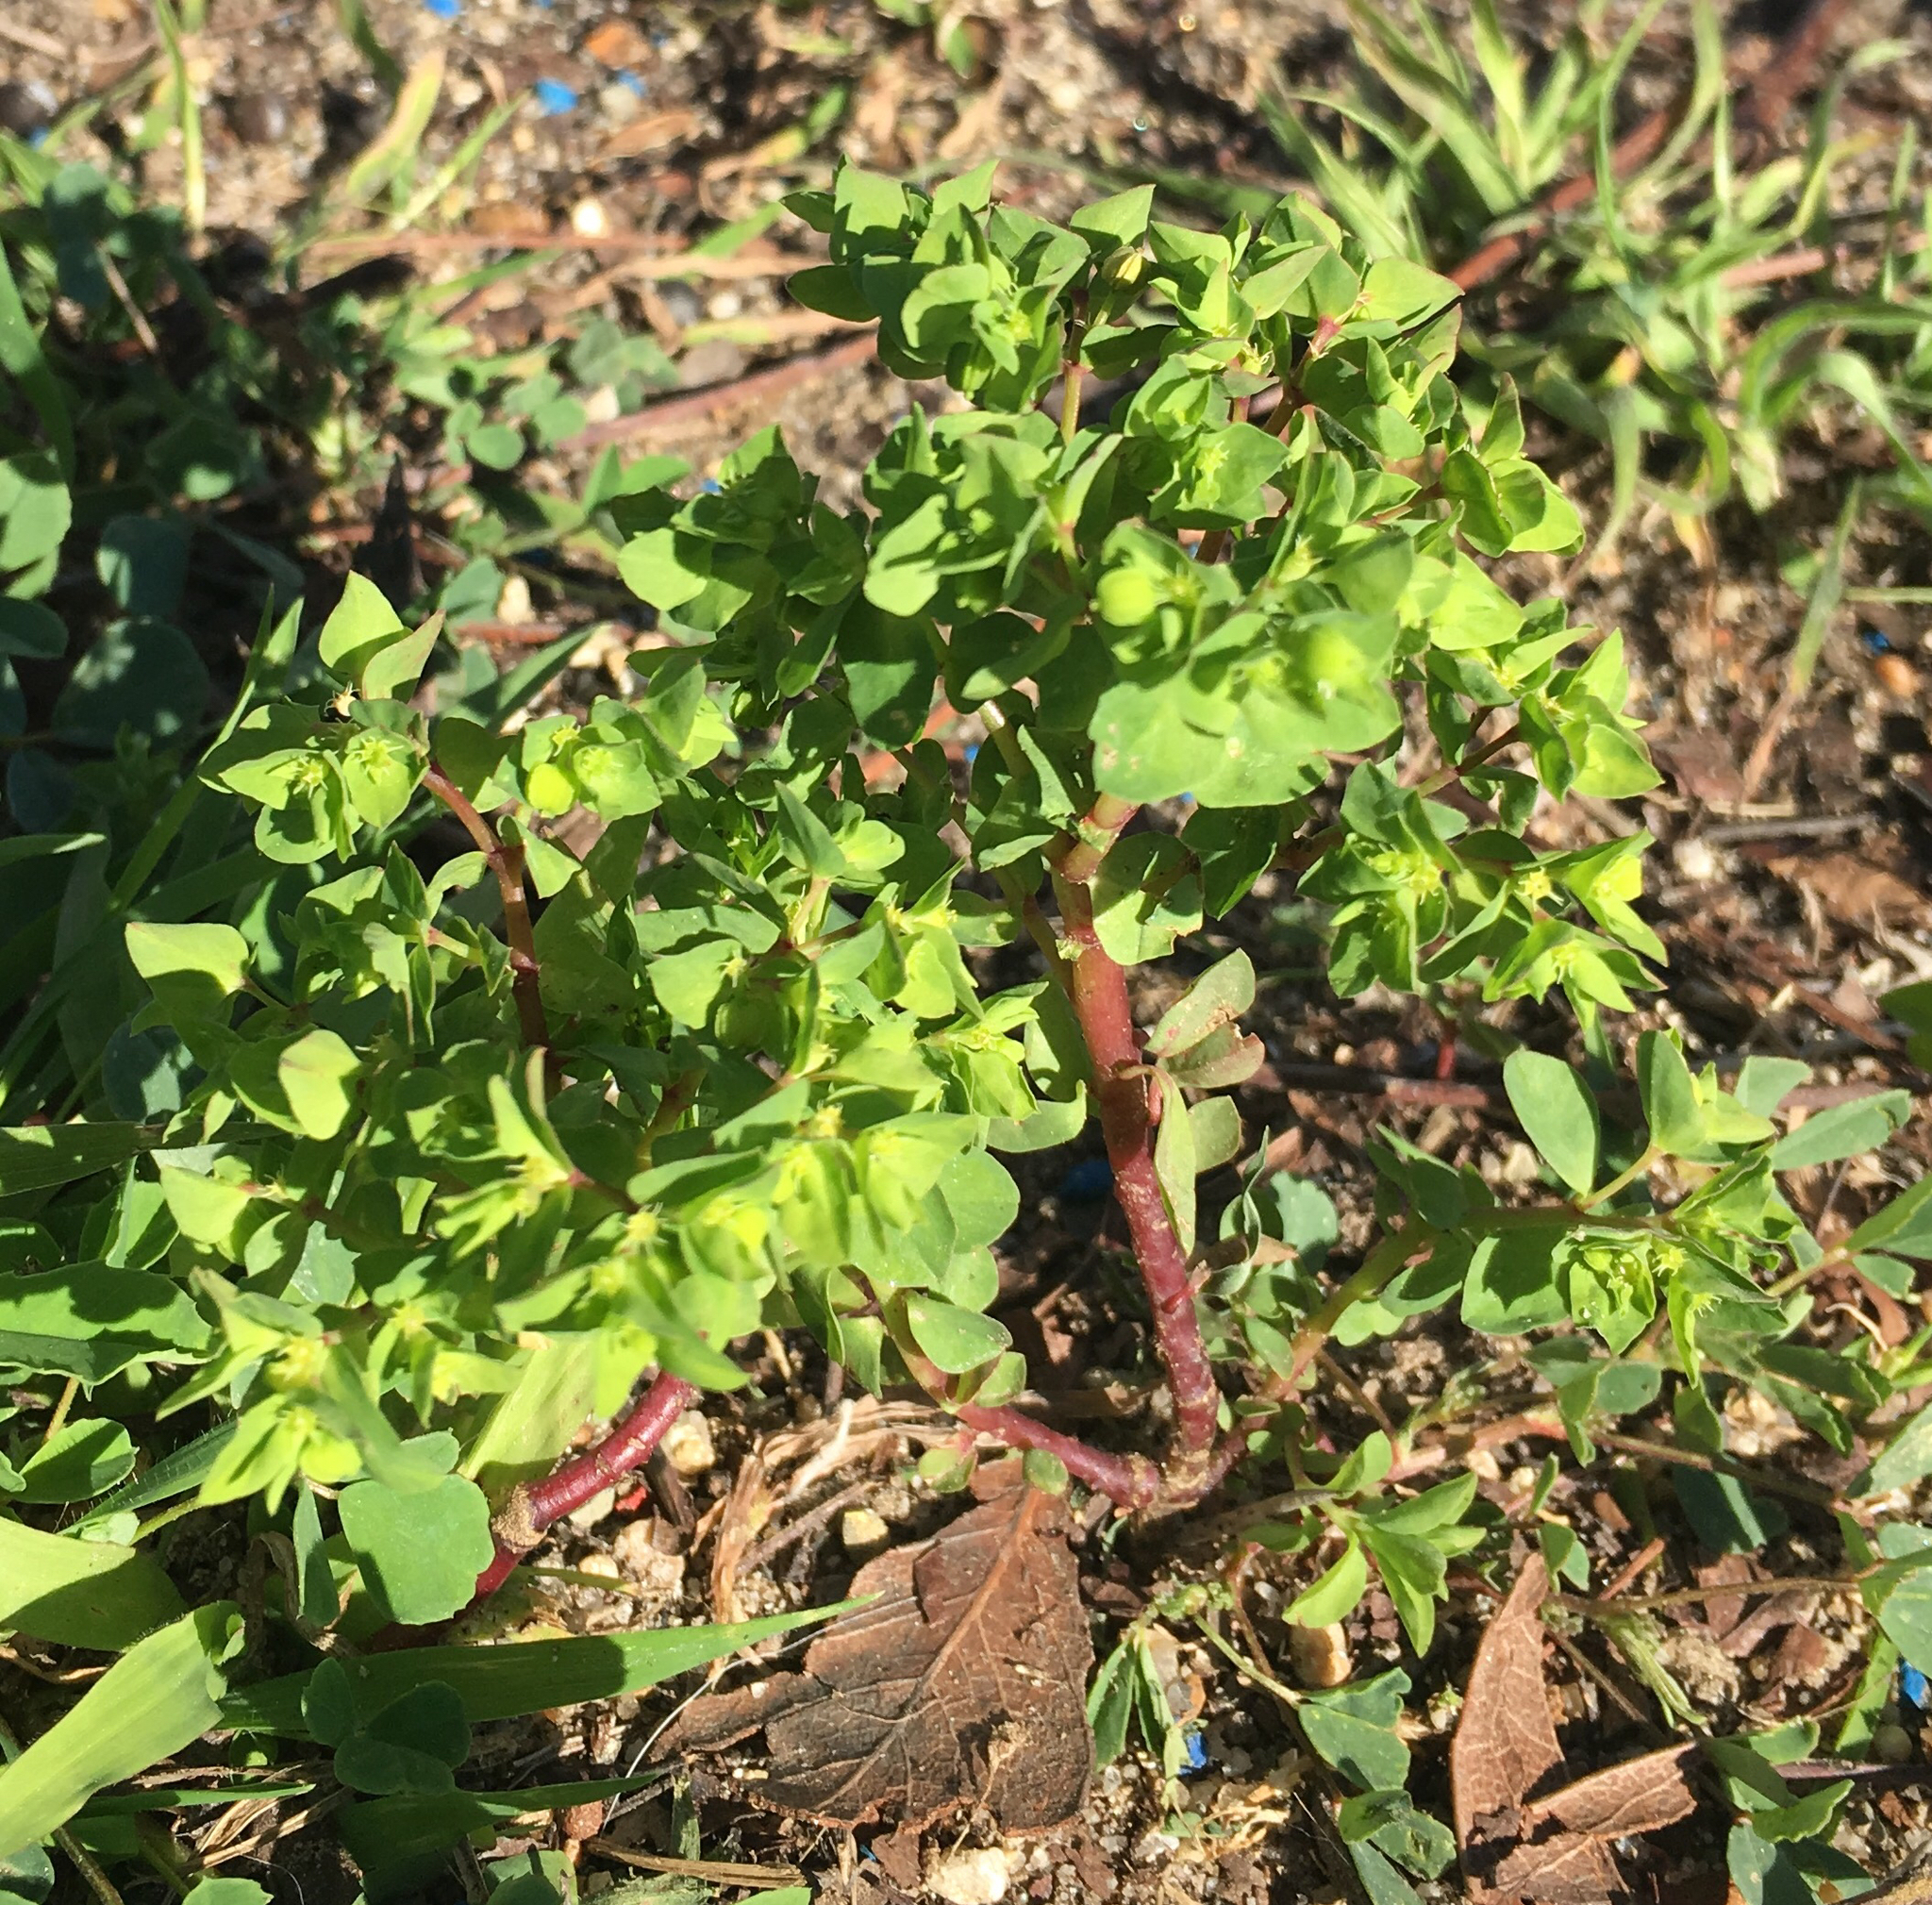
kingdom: Plantae
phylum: Tracheophyta
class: Magnoliopsida
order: Malpighiales
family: Euphorbiaceae
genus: Euphorbia
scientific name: Euphorbia peplus
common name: Petty spurge
